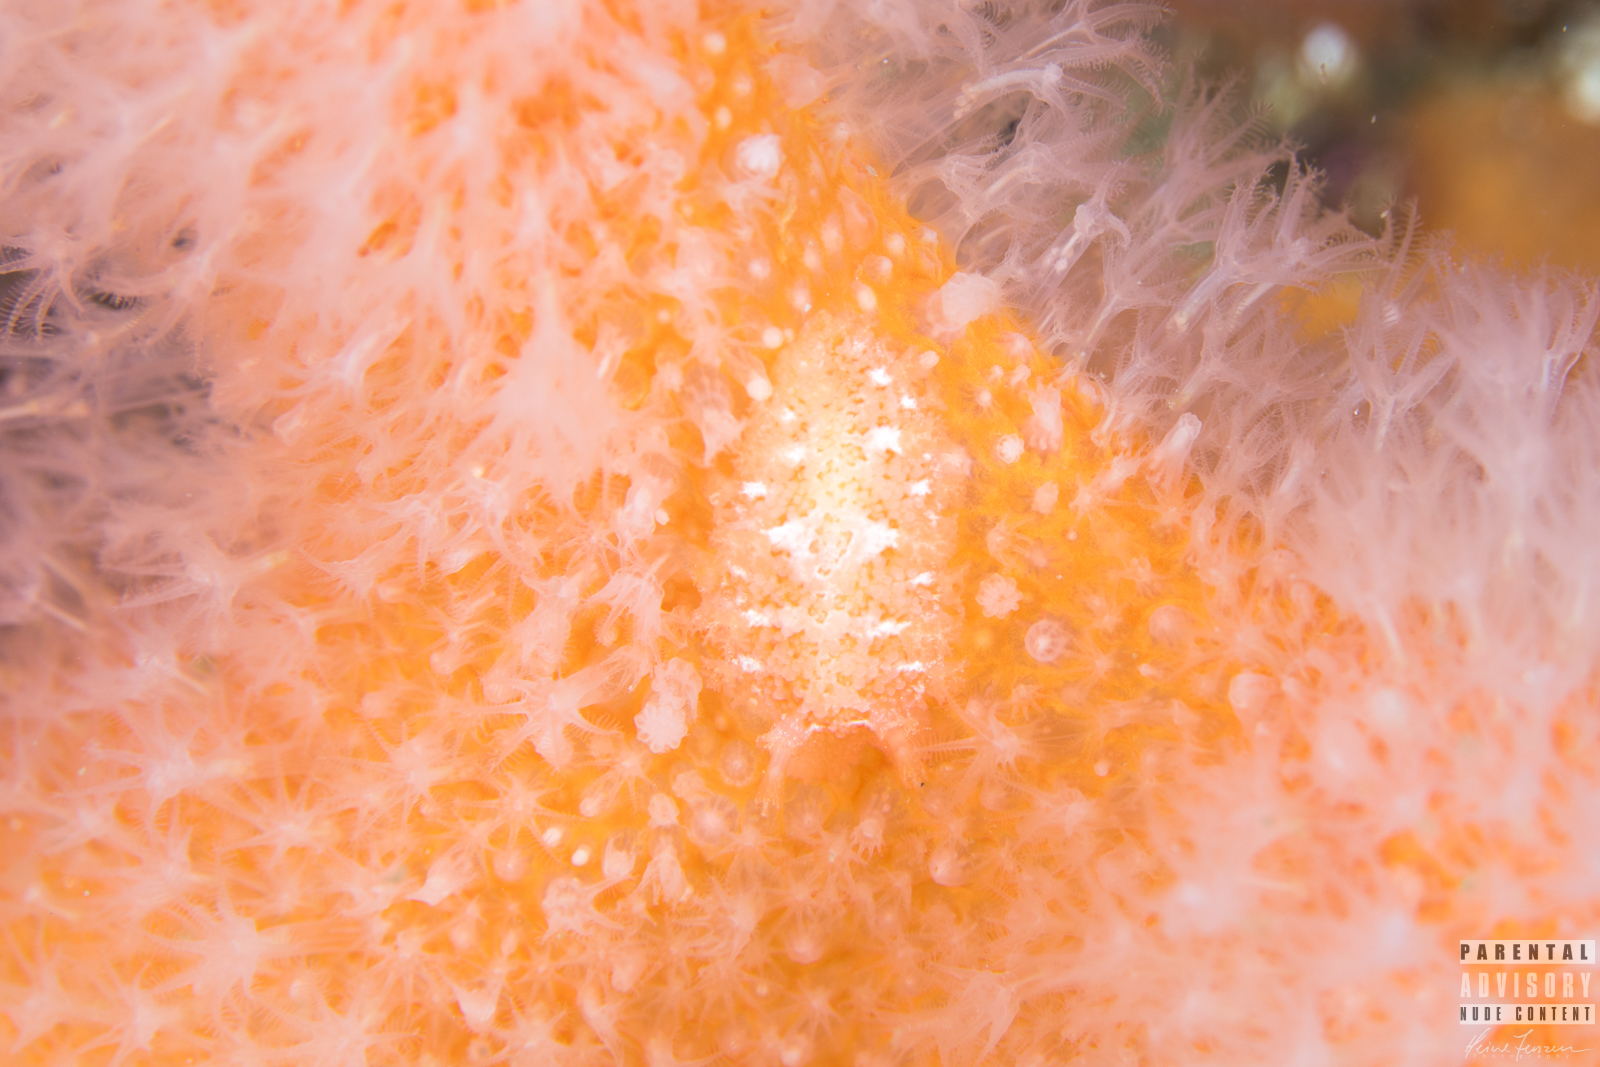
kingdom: Animalia
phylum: Mollusca
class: Gastropoda
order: Nudibranchia
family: Tritoniidae
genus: Tritonia
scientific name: Tritonia hombergii
